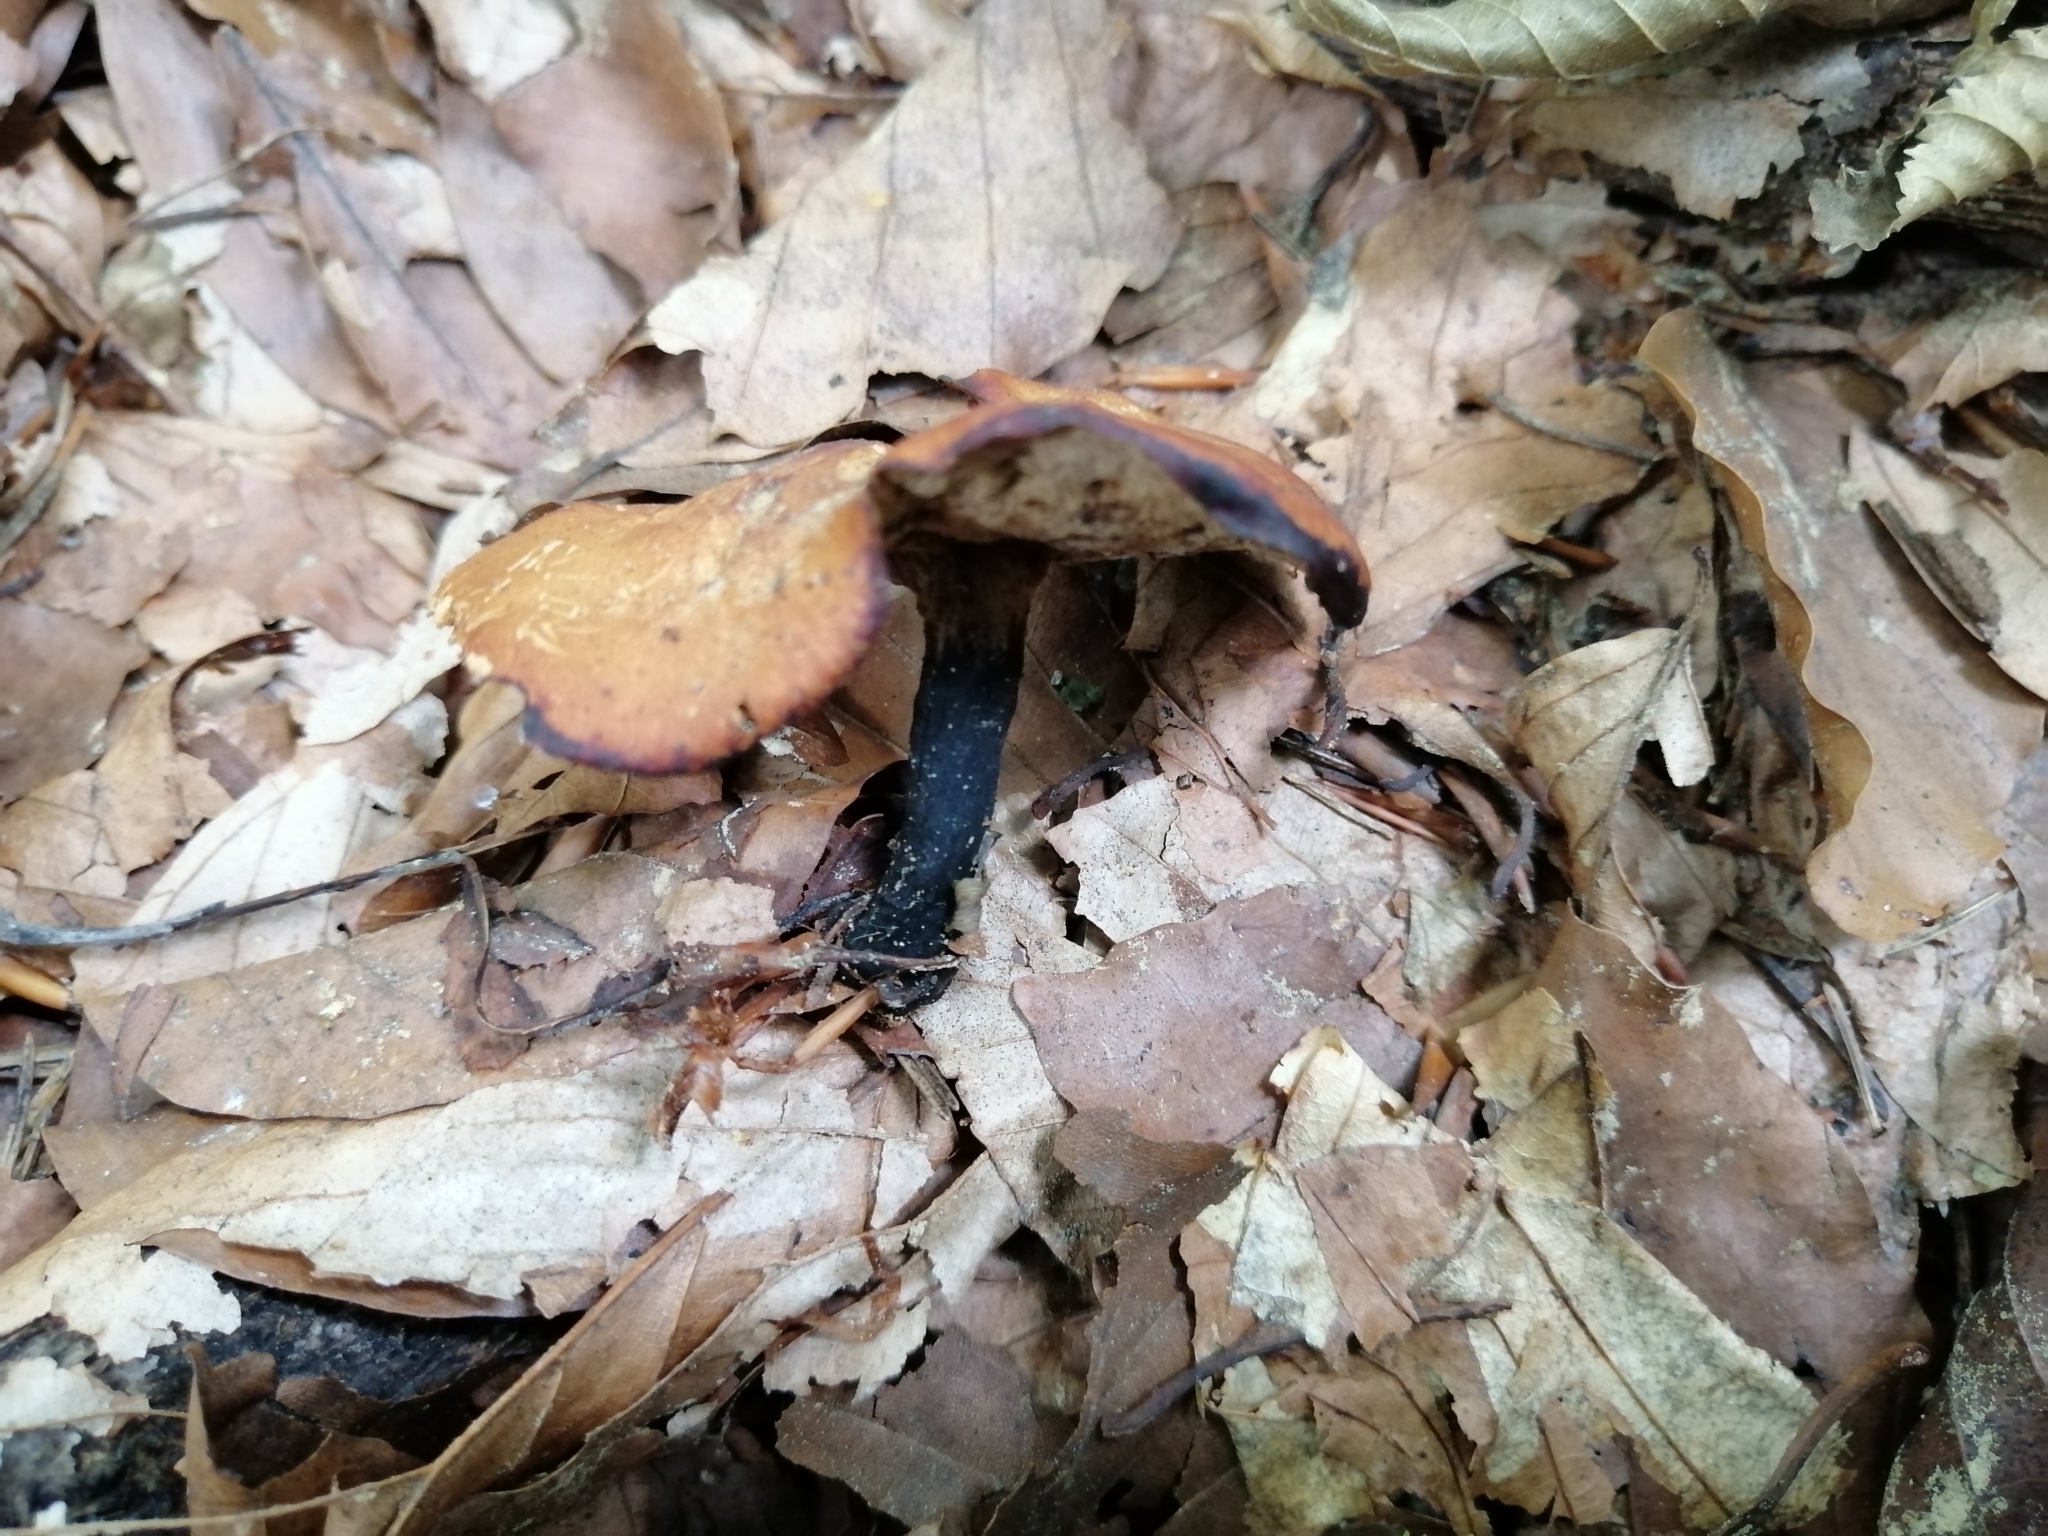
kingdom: Fungi
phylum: Basidiomycota
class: Agaricomycetes
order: Polyporales
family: Polyporaceae
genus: Cerioporus
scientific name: Cerioporus varius
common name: Elegant polypore
